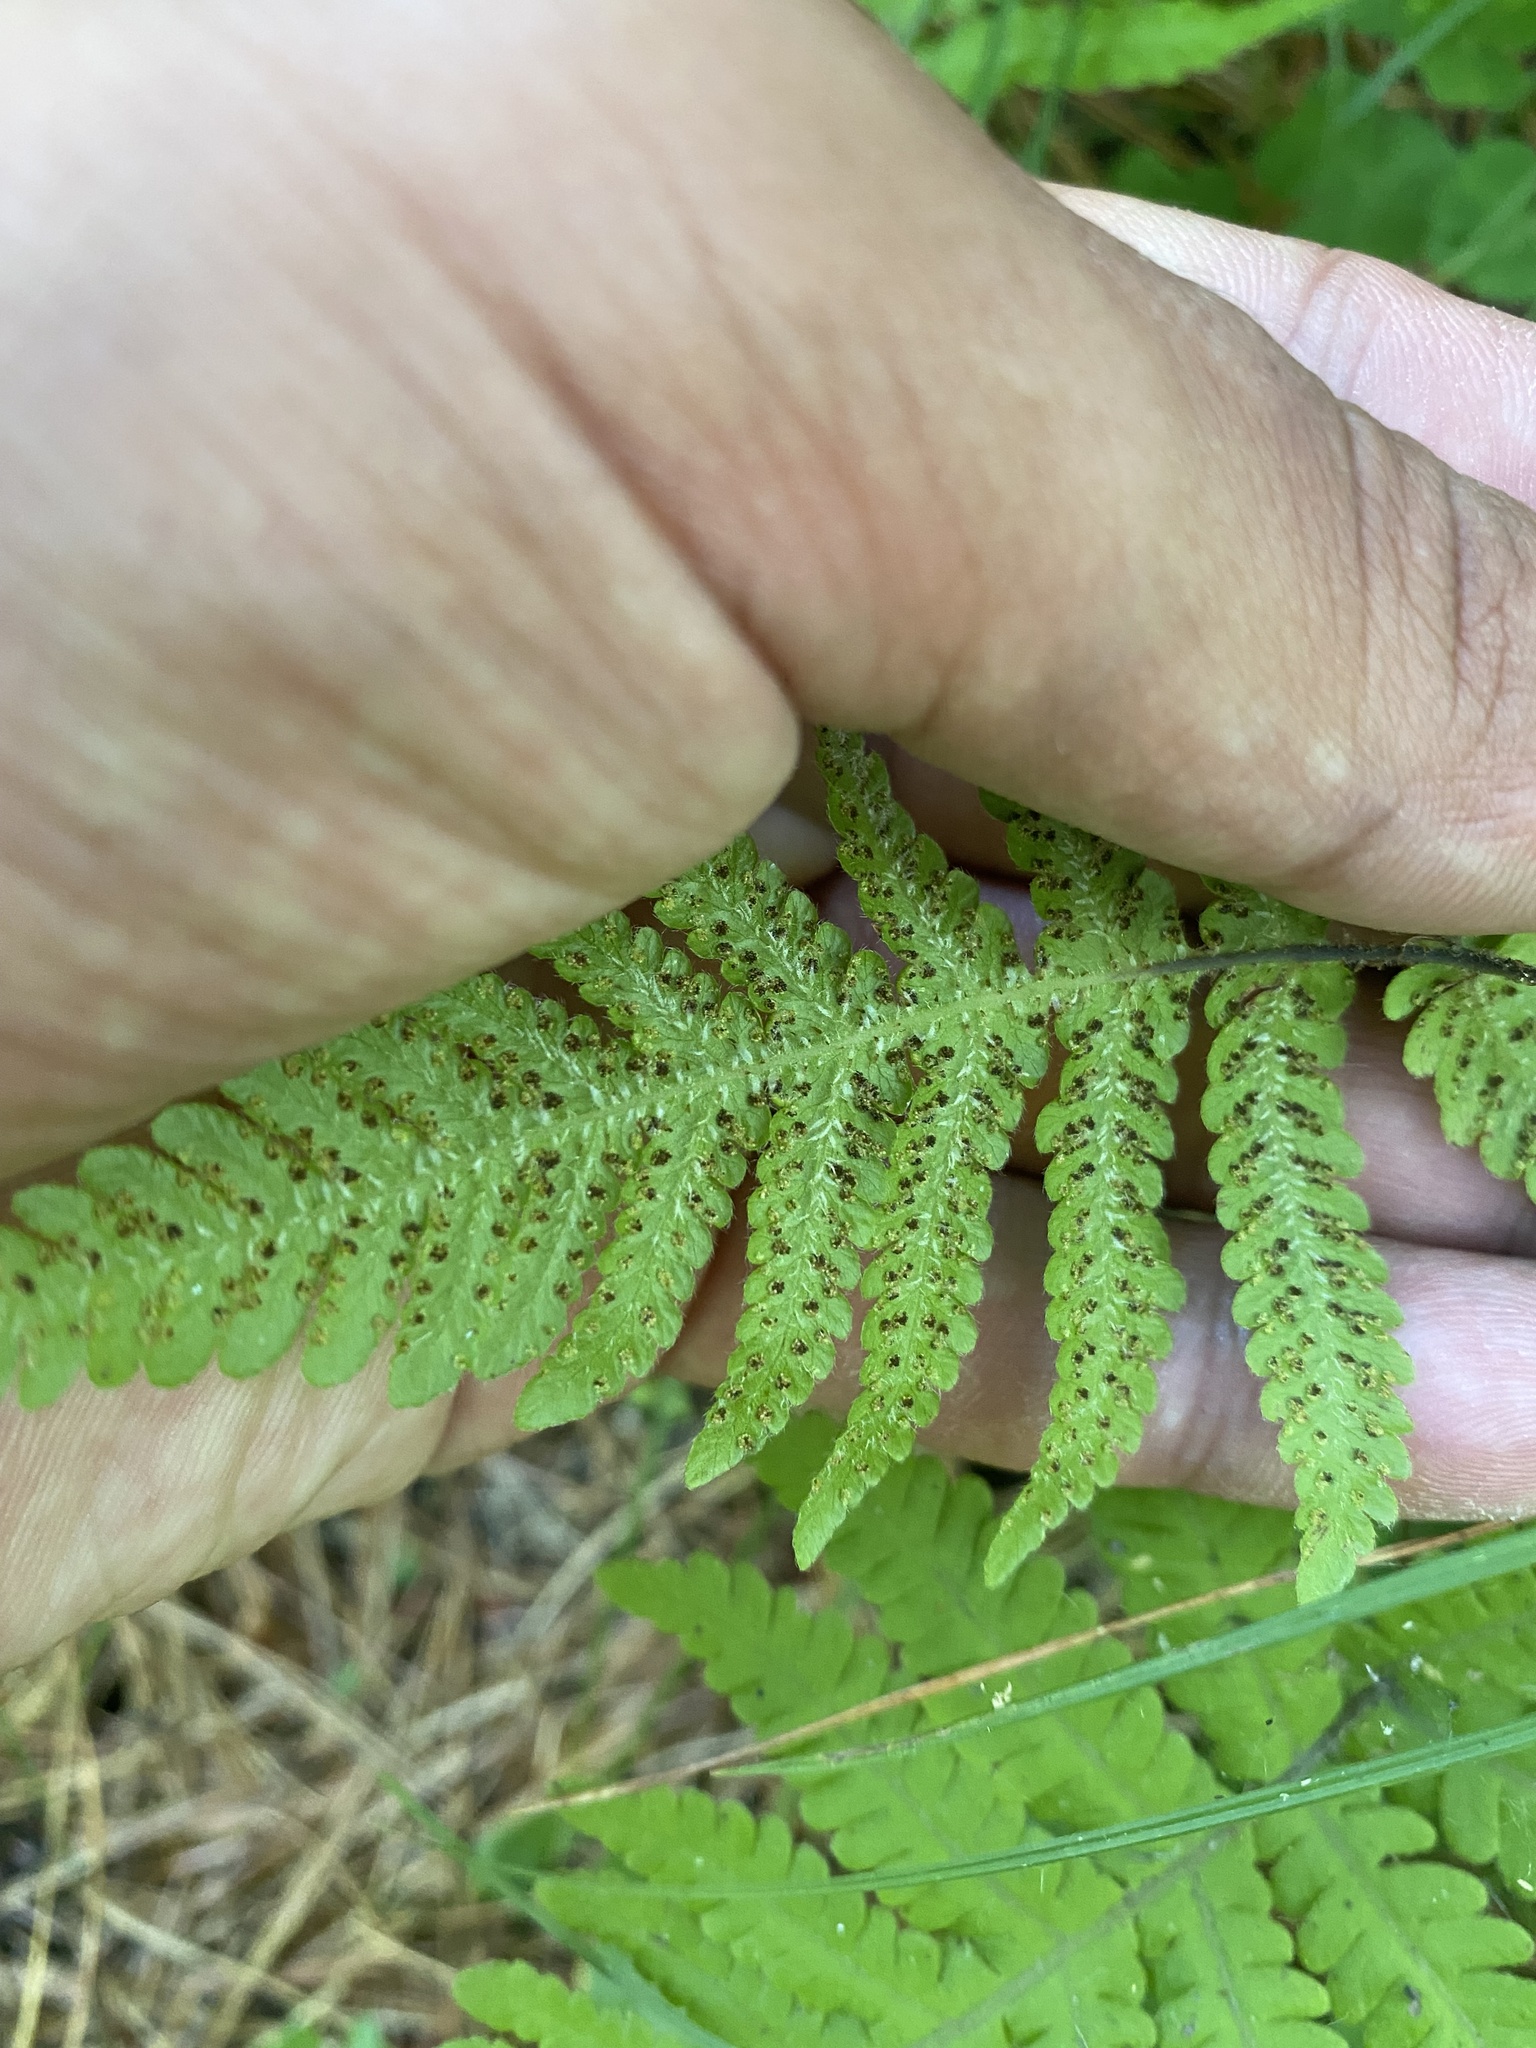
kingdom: Plantae
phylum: Tracheophyta
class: Polypodiopsida
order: Polypodiales
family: Thelypteridaceae
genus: Phegopteris
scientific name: Phegopteris connectilis
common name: Beech fern
